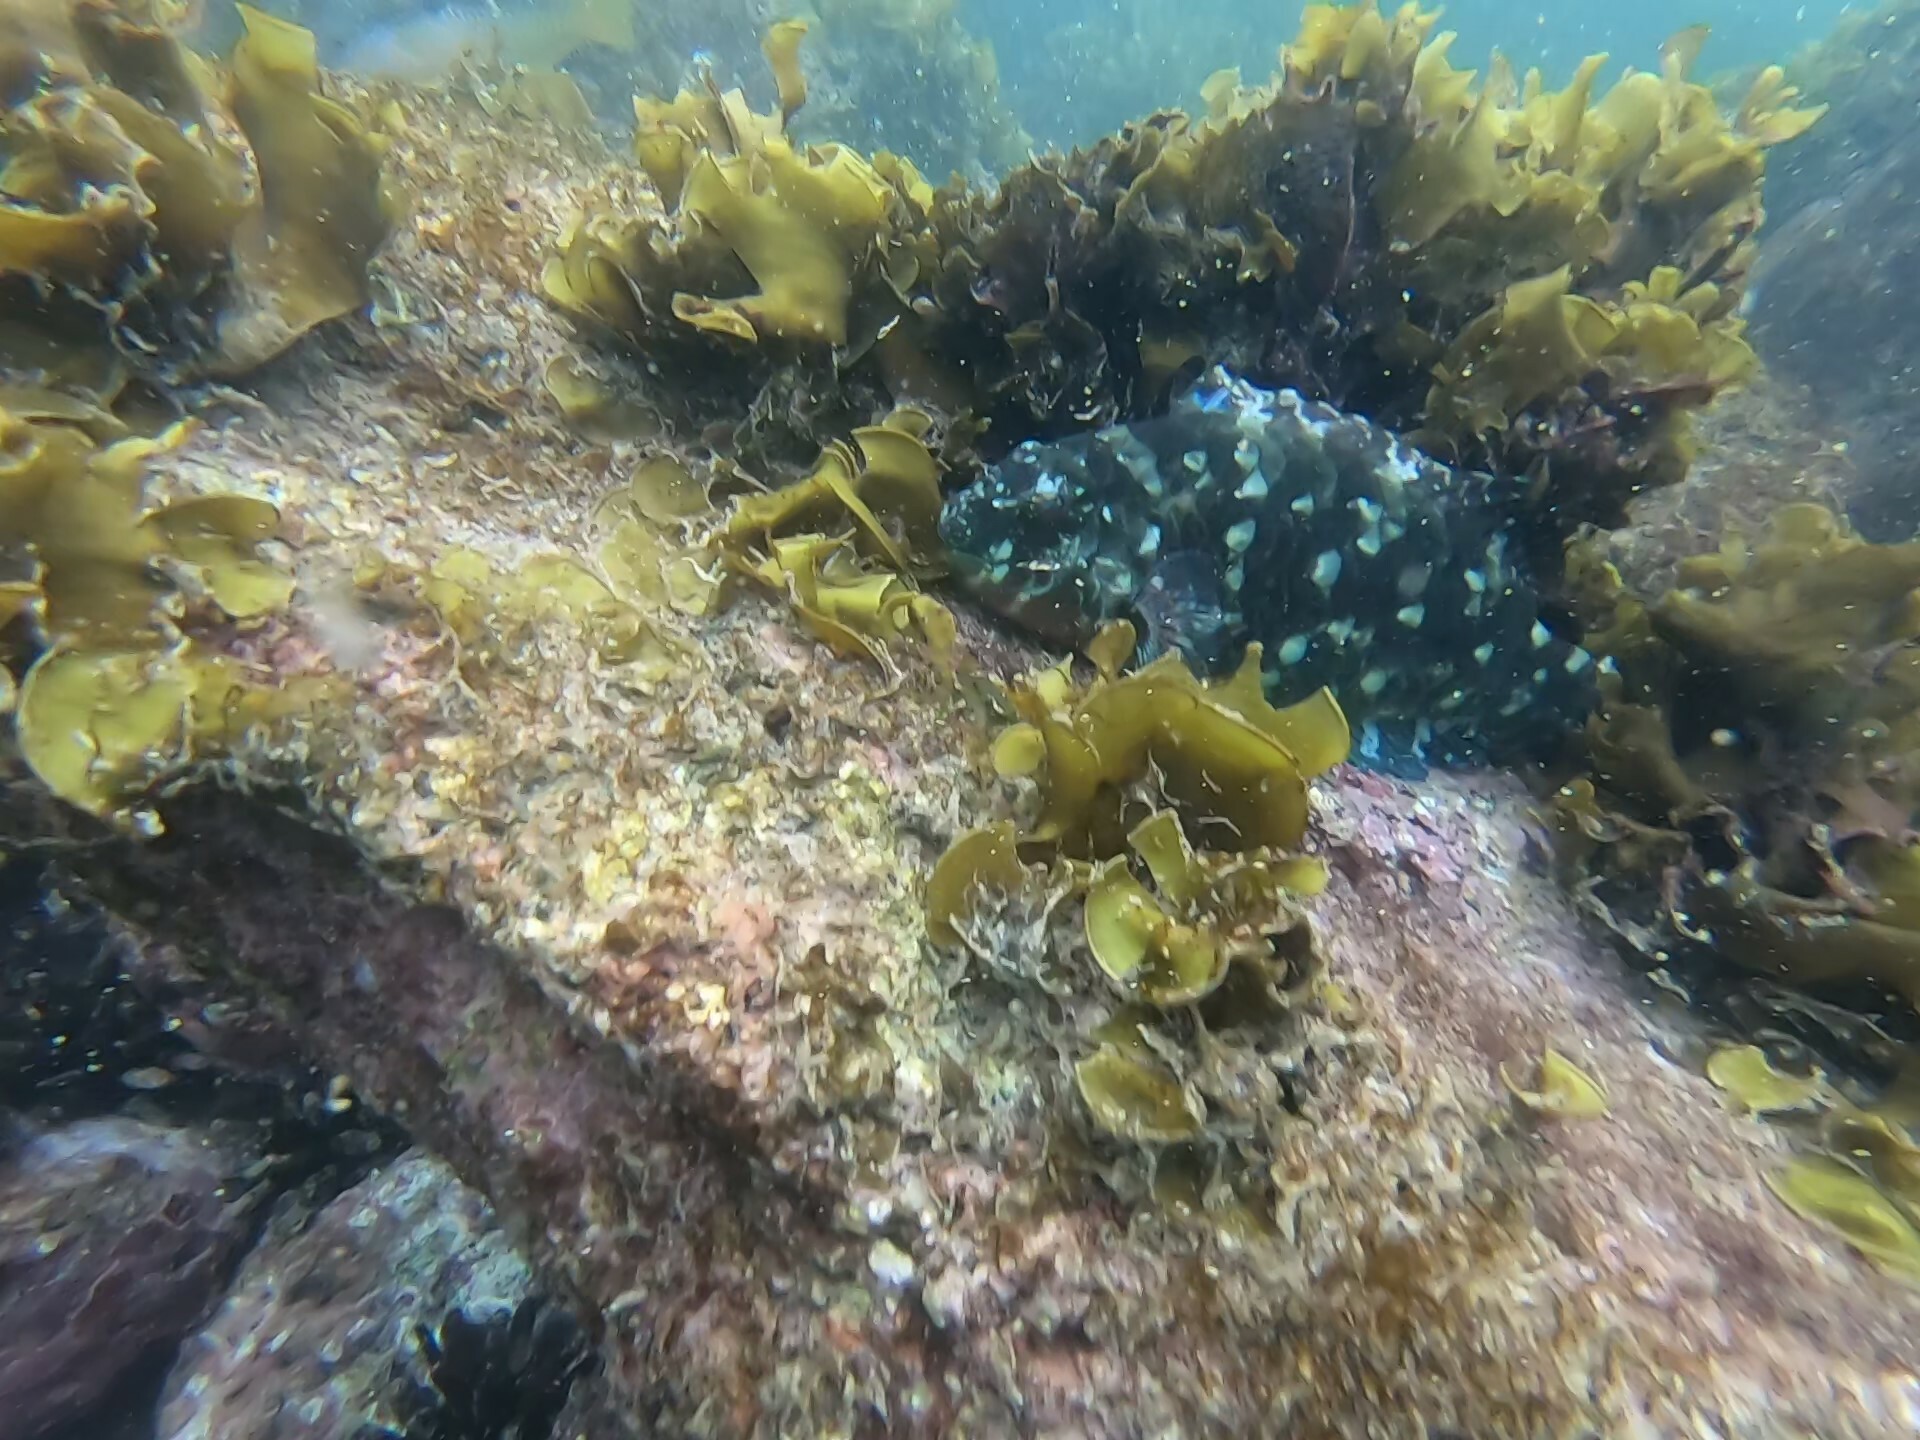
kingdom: Animalia
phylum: Chordata
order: Perciformes
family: Serranidae
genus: Epinephelus
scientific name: Epinephelus labriformis
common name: Flag cabrilla
